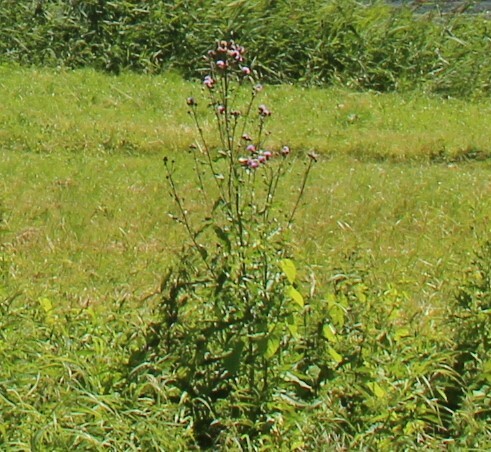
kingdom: Plantae
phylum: Tracheophyta
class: Magnoliopsida
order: Asterales
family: Asteraceae
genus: Cirsium
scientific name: Cirsium arvense
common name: Creeping thistle
